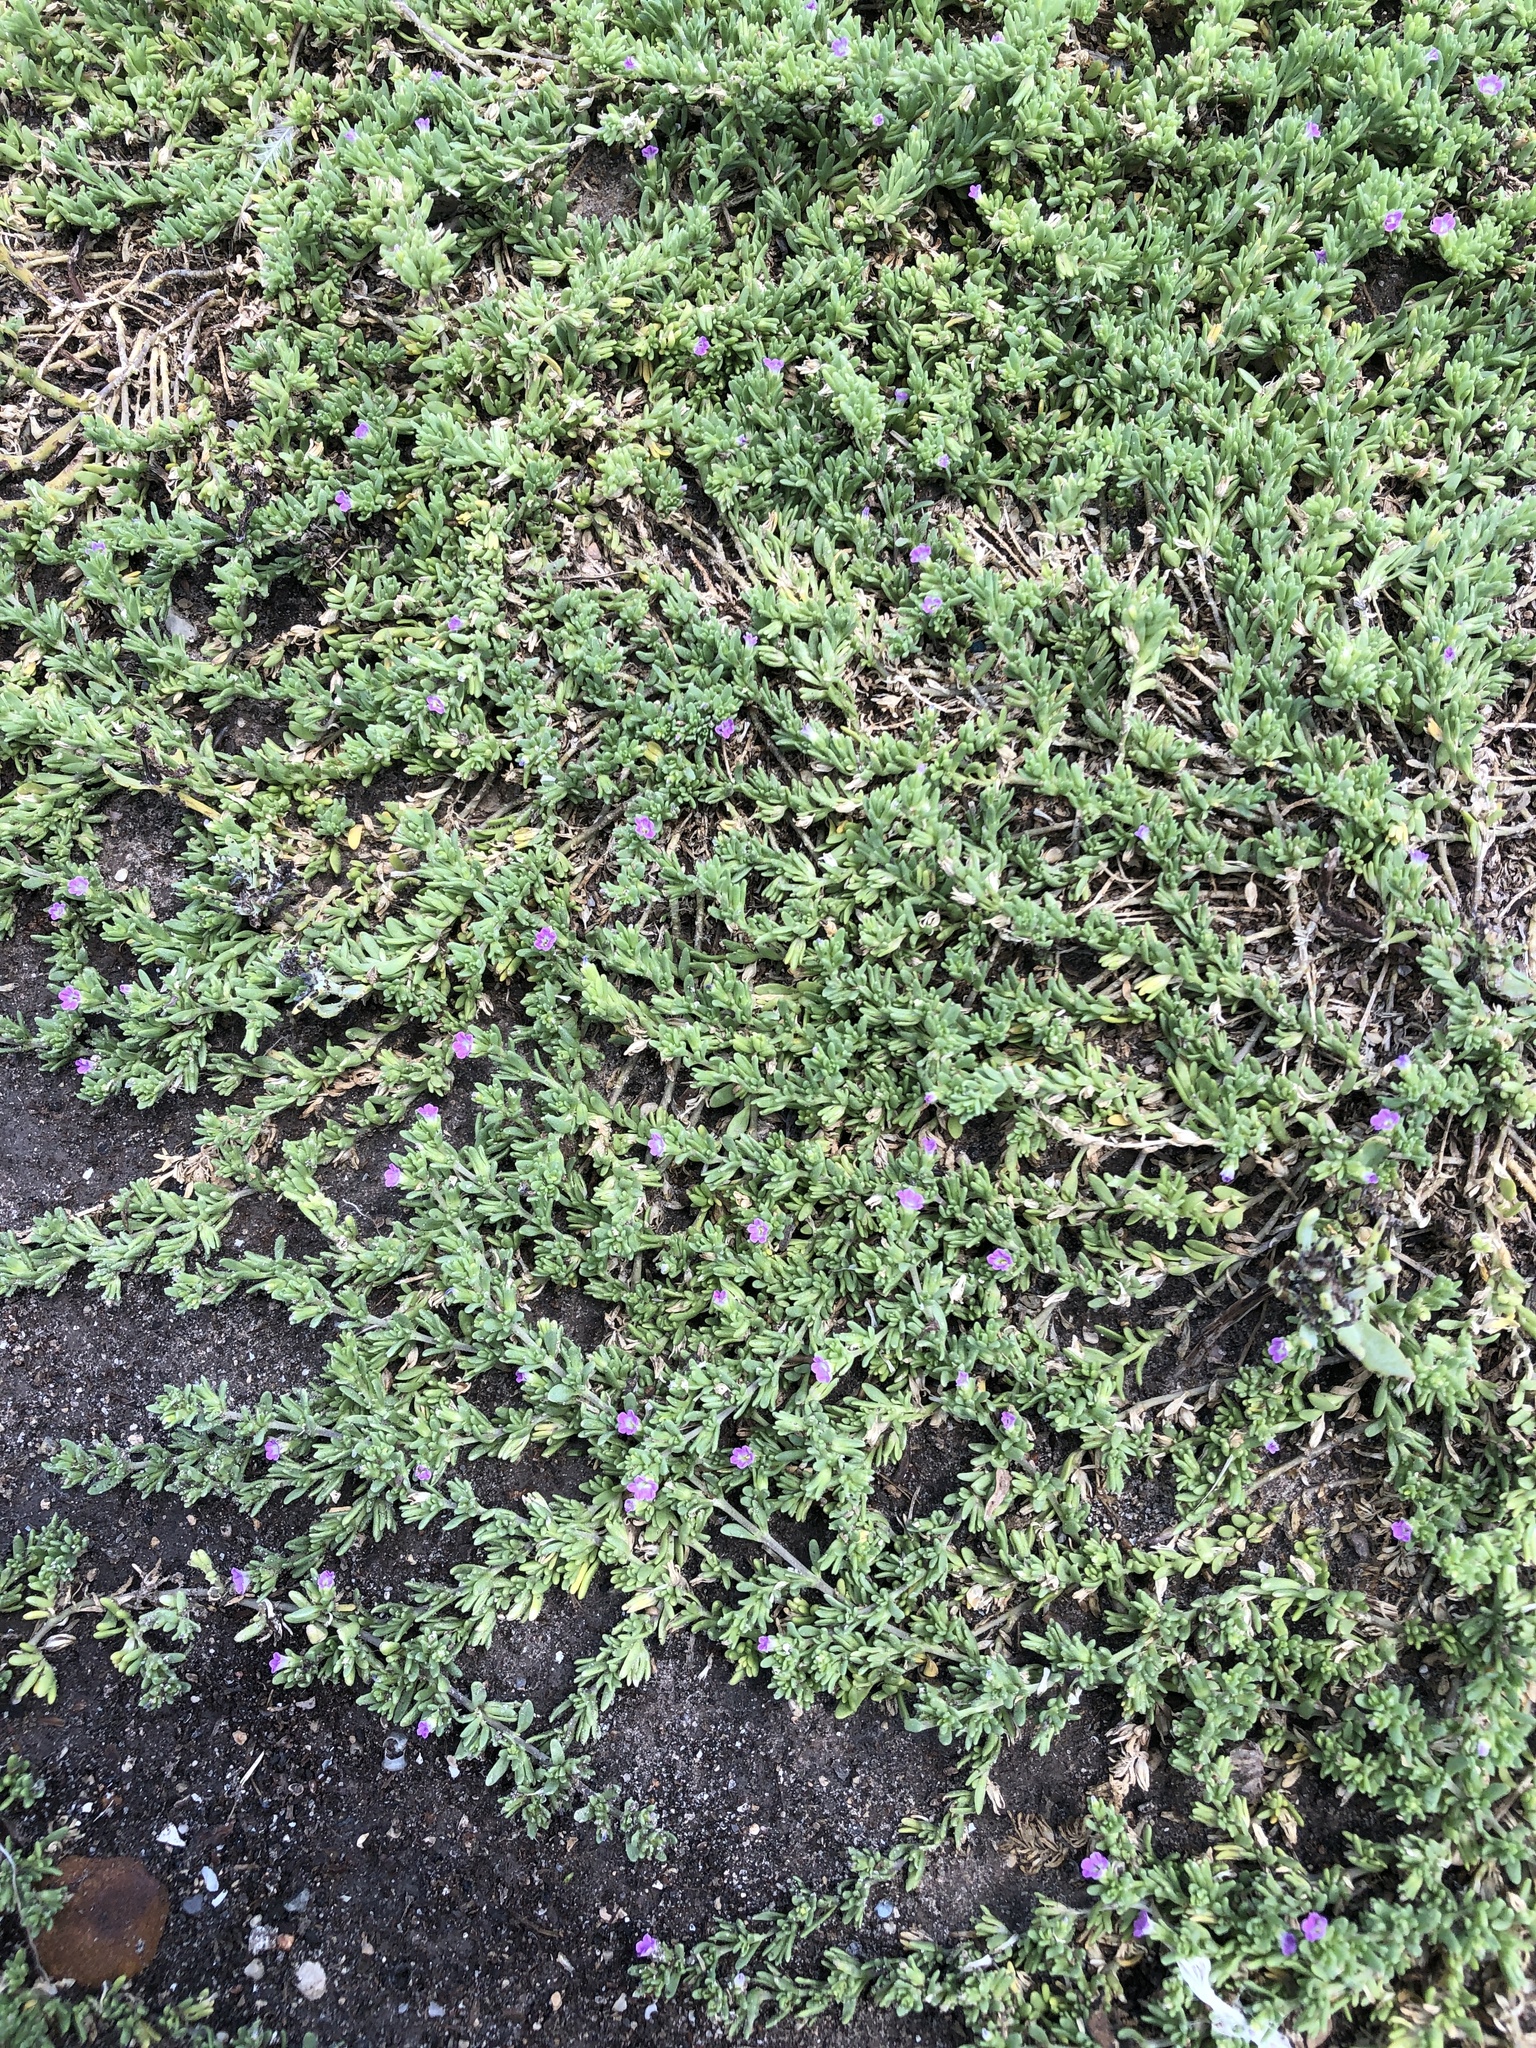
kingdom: Plantae
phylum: Tracheophyta
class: Magnoliopsida
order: Solanales
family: Solanaceae
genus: Calibrachoa
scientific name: Calibrachoa parviflora
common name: Seaside petunia
